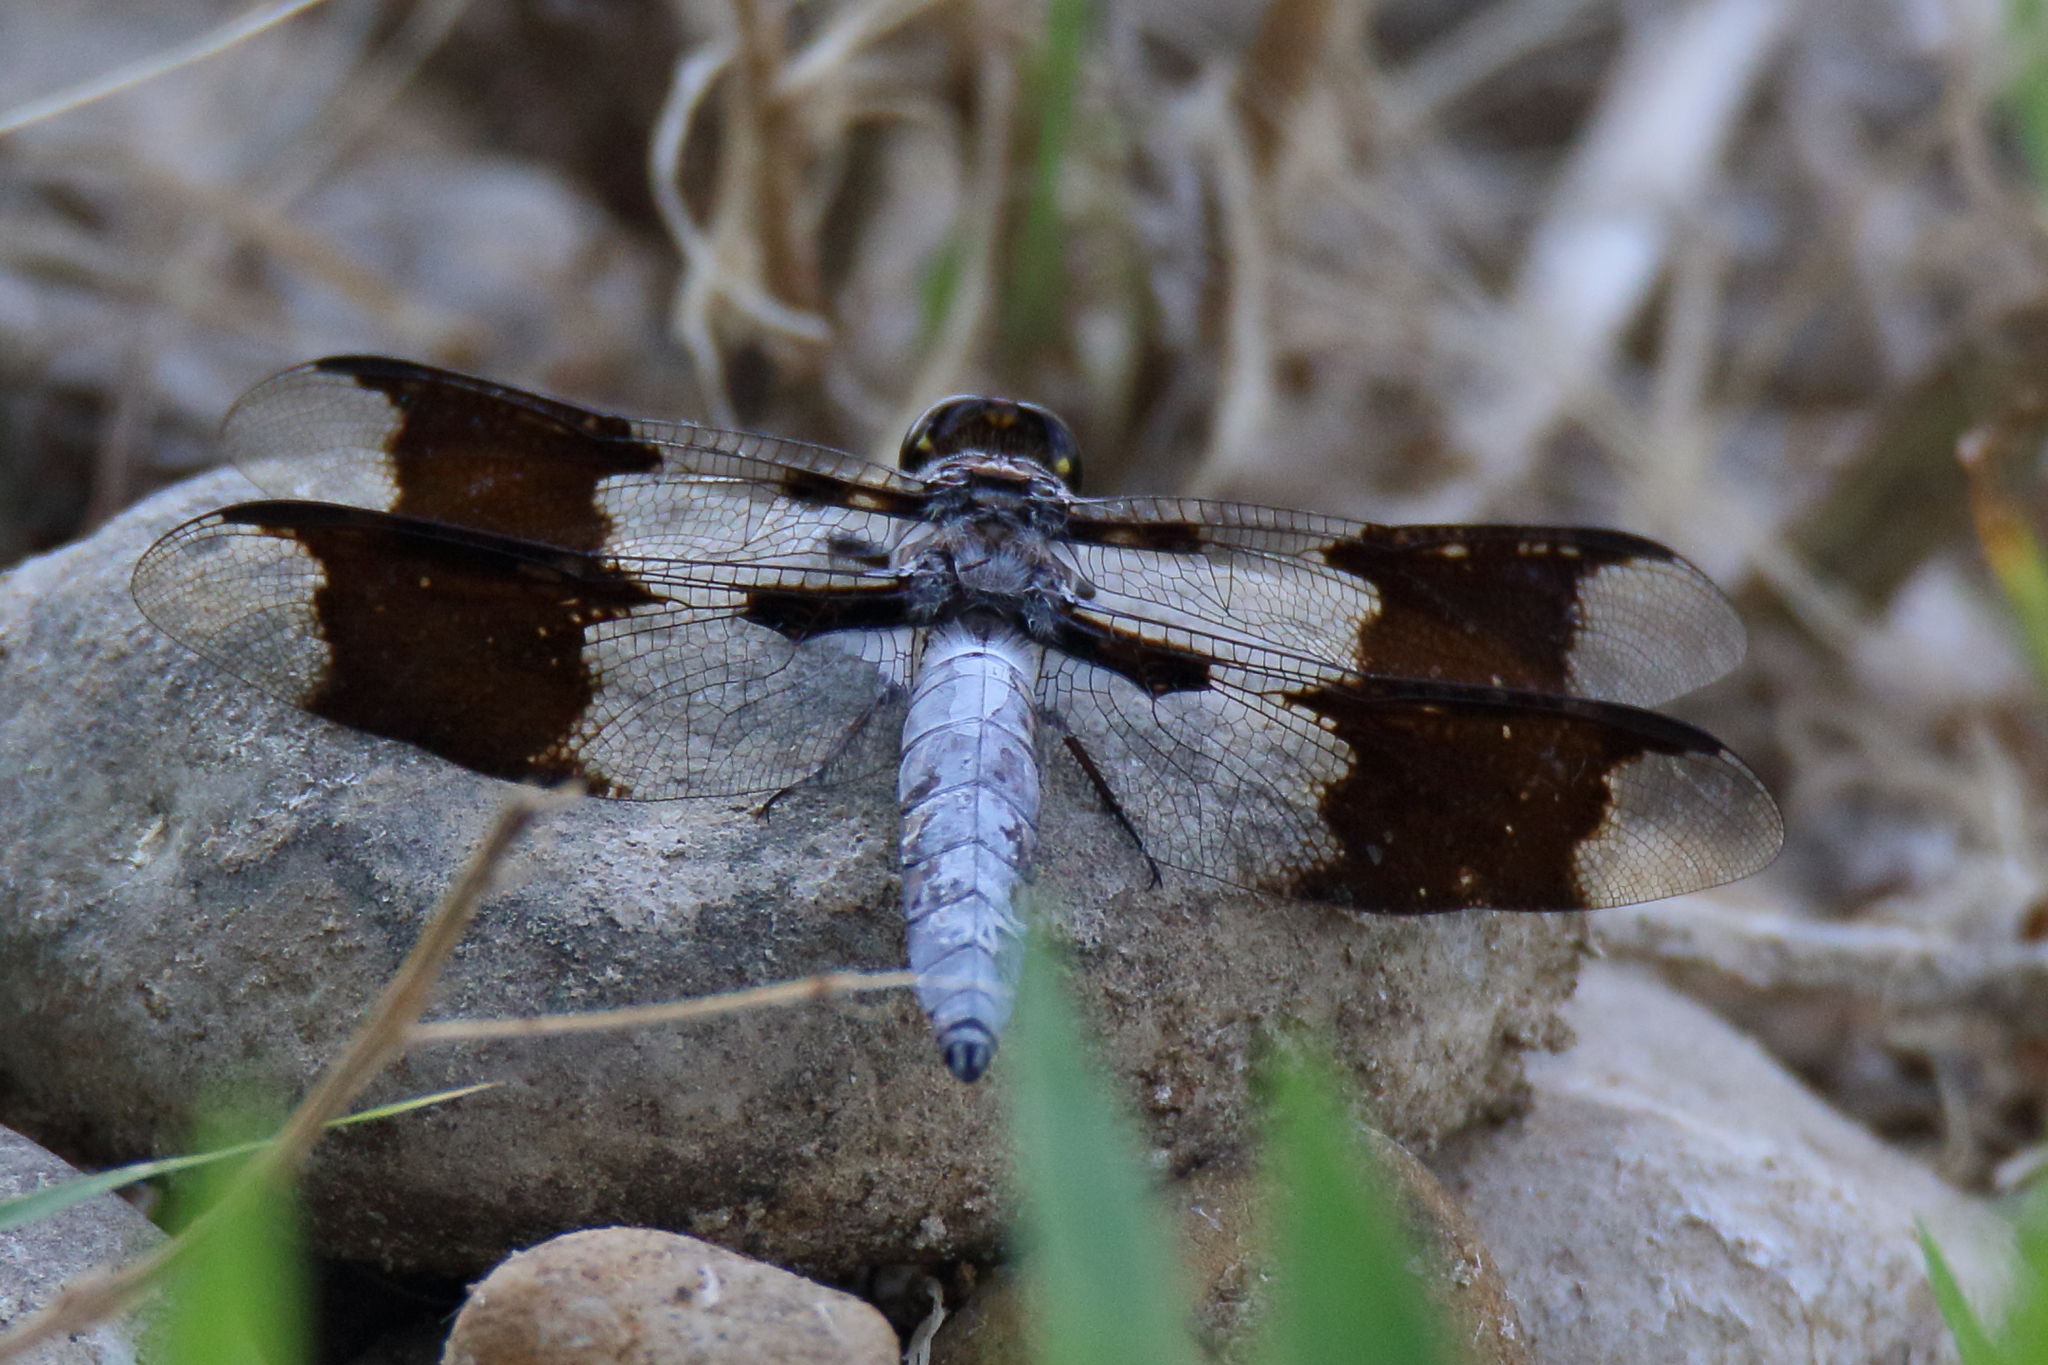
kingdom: Animalia
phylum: Arthropoda
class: Insecta
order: Odonata
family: Libellulidae
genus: Plathemis
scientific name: Plathemis lydia
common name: Common whitetail
